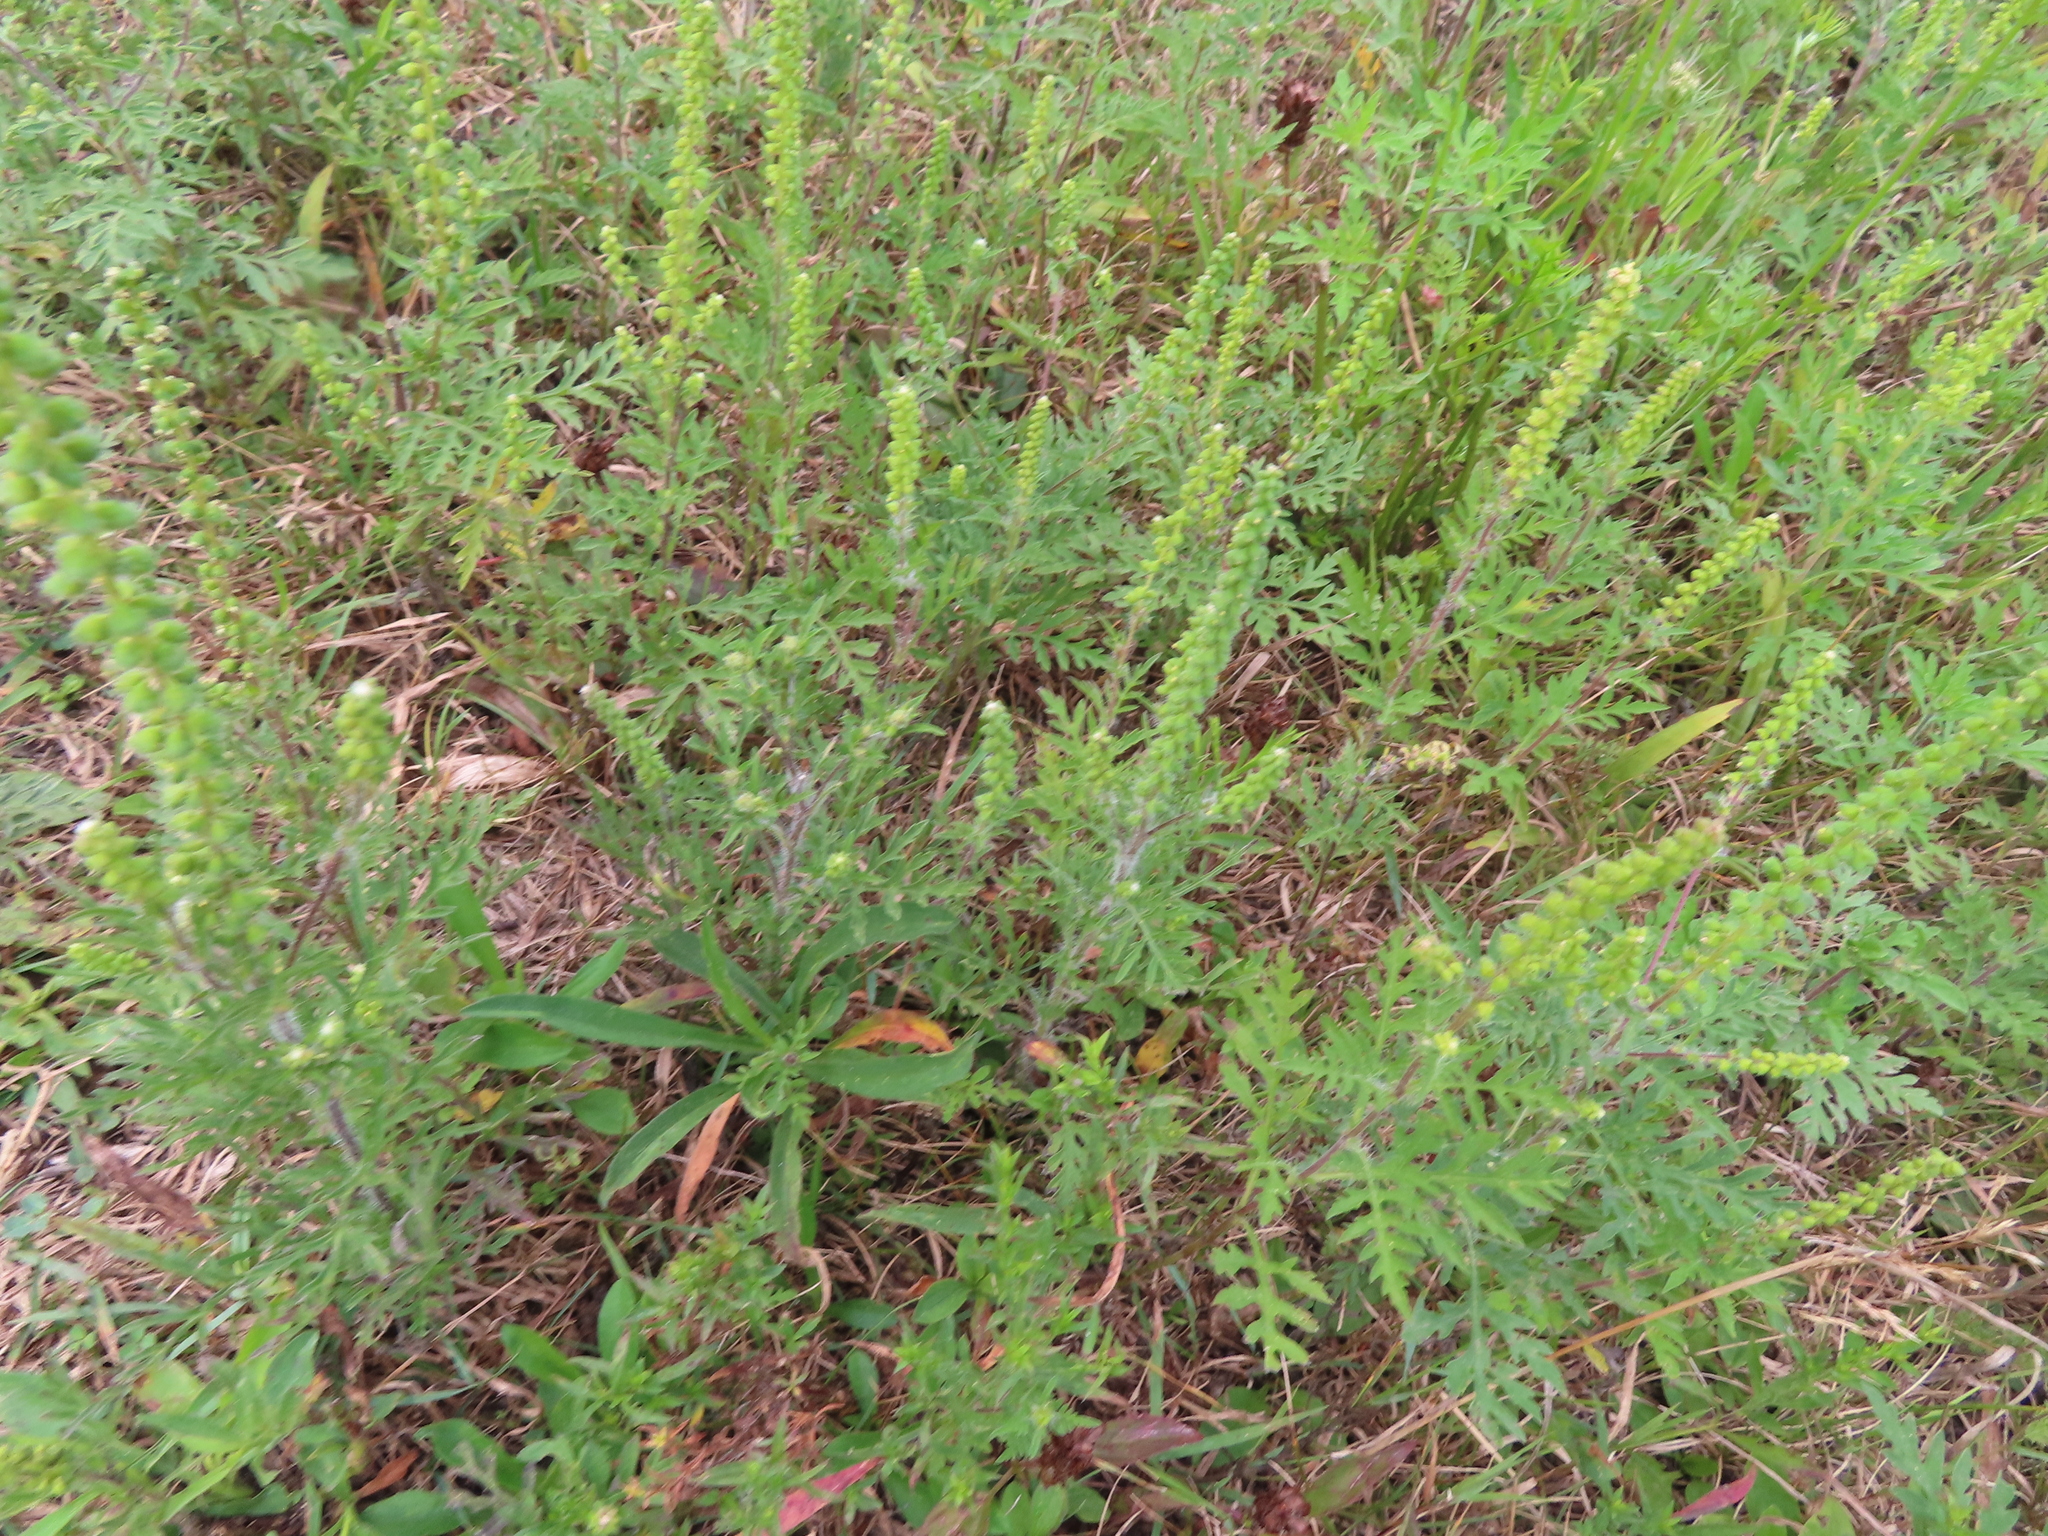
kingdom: Plantae
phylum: Tracheophyta
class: Magnoliopsida
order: Asterales
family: Asteraceae
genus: Ambrosia
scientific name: Ambrosia artemisiifolia
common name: Annual ragweed
